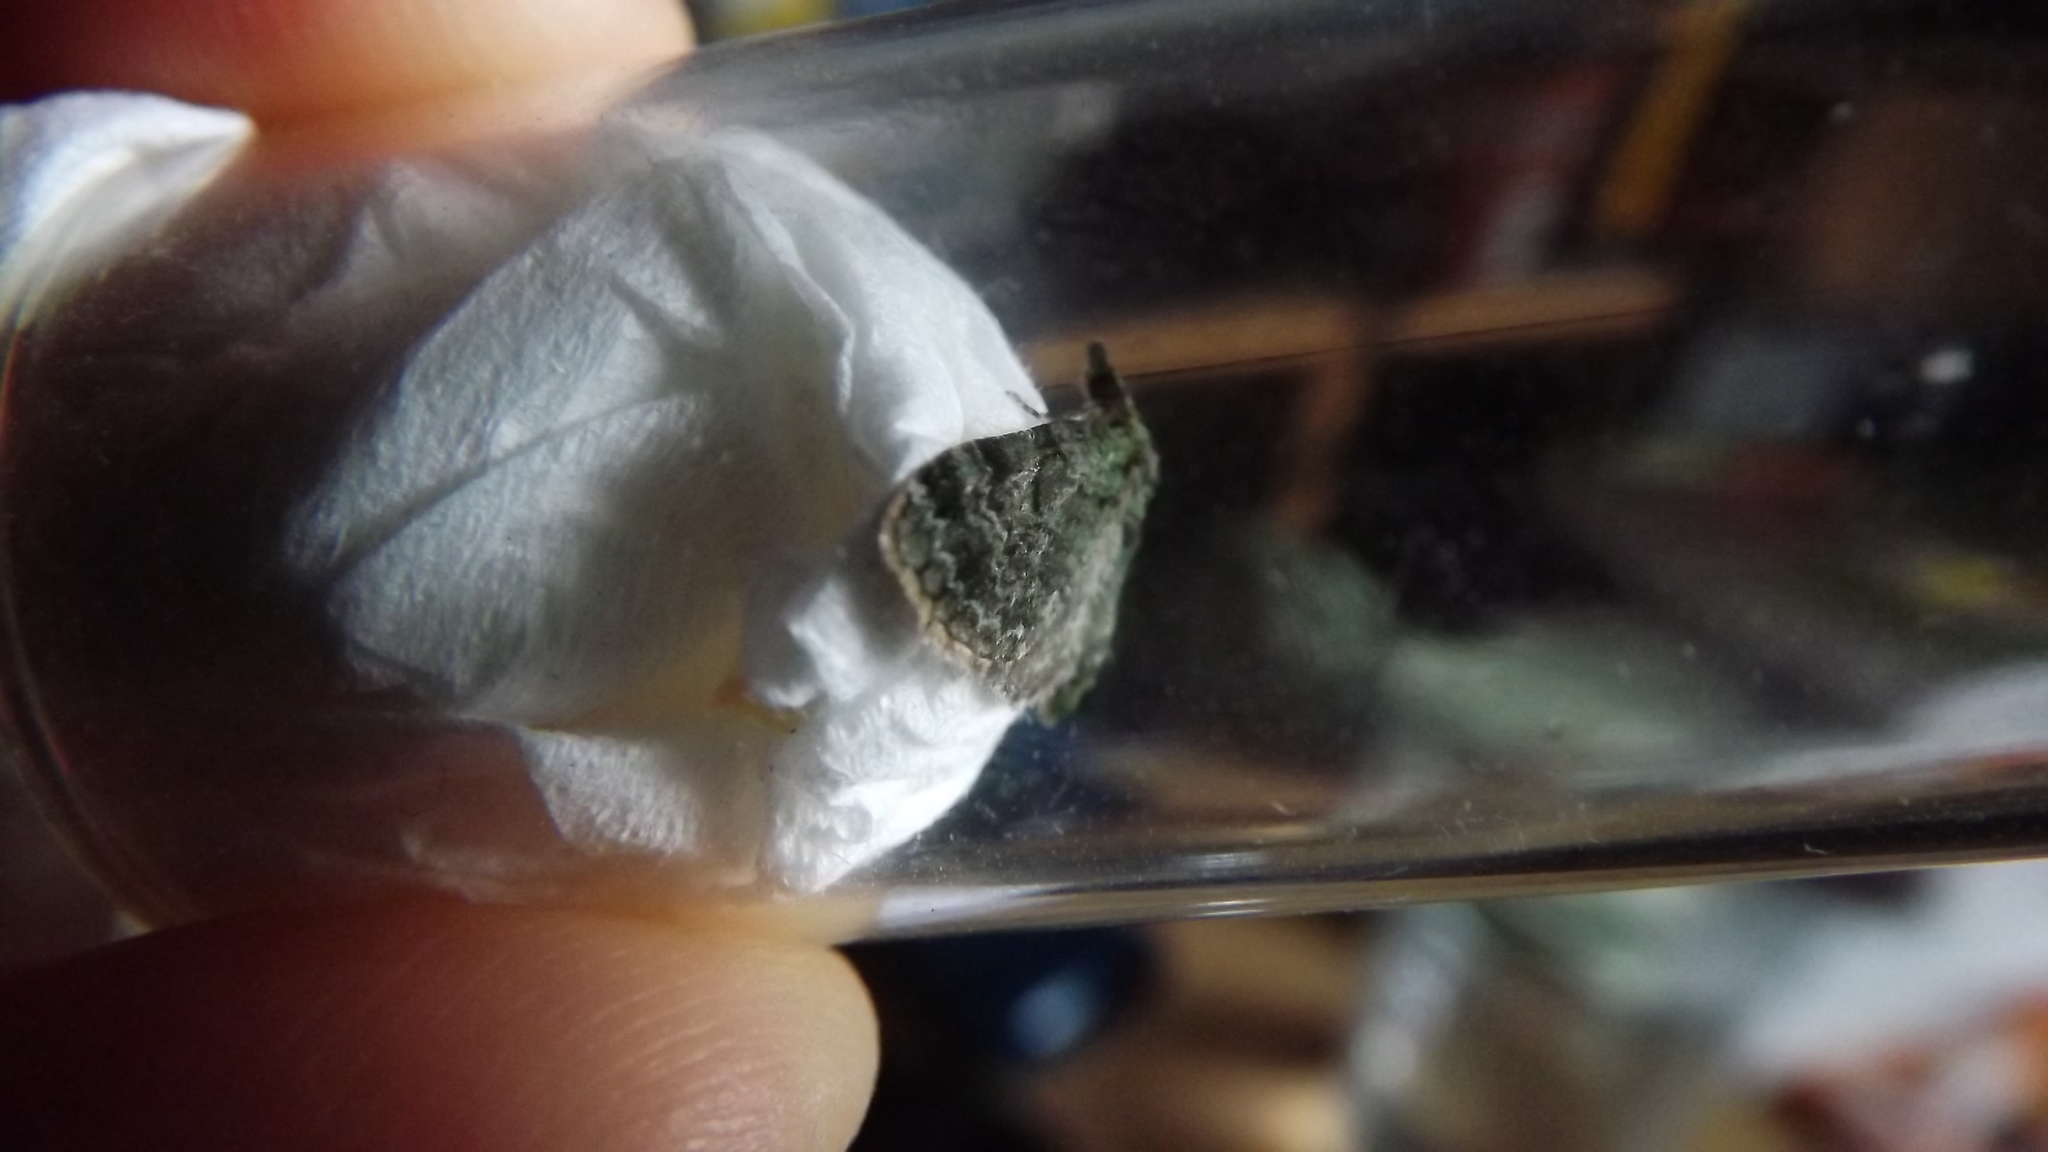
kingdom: Animalia
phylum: Arthropoda
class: Insecta
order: Lepidoptera
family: Geometridae
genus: Pasiphila
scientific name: Pasiphila rectangulata
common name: Green pug
